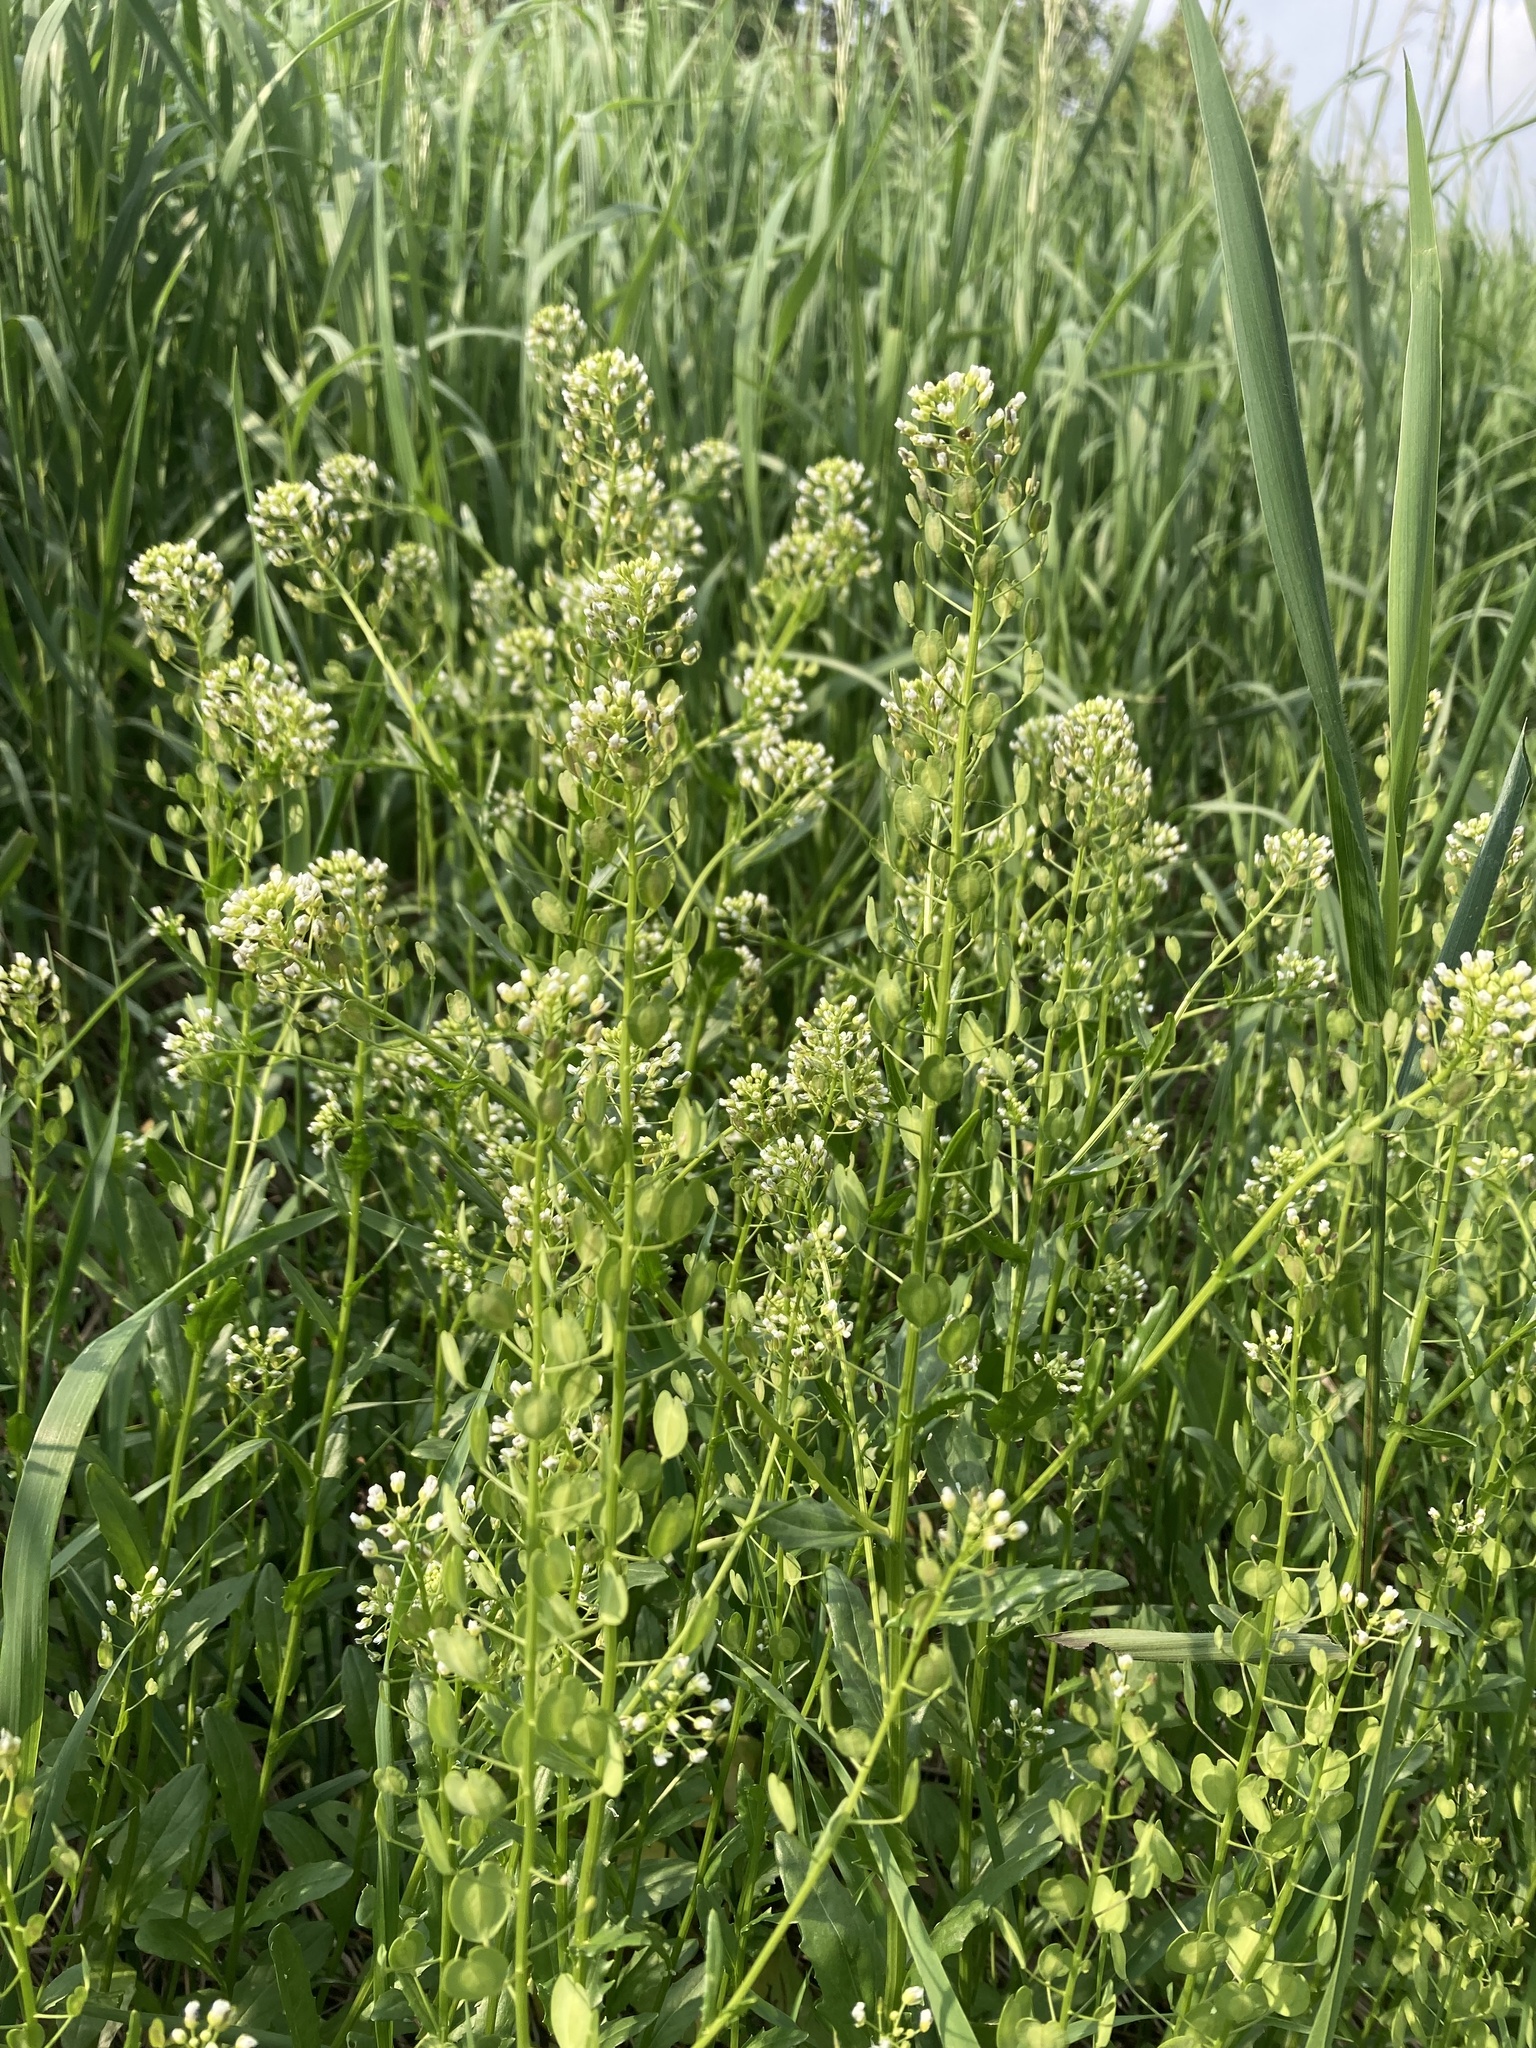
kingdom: Plantae
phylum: Tracheophyta
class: Magnoliopsida
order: Brassicales
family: Brassicaceae
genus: Thlaspi
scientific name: Thlaspi arvense
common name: Field pennycress
